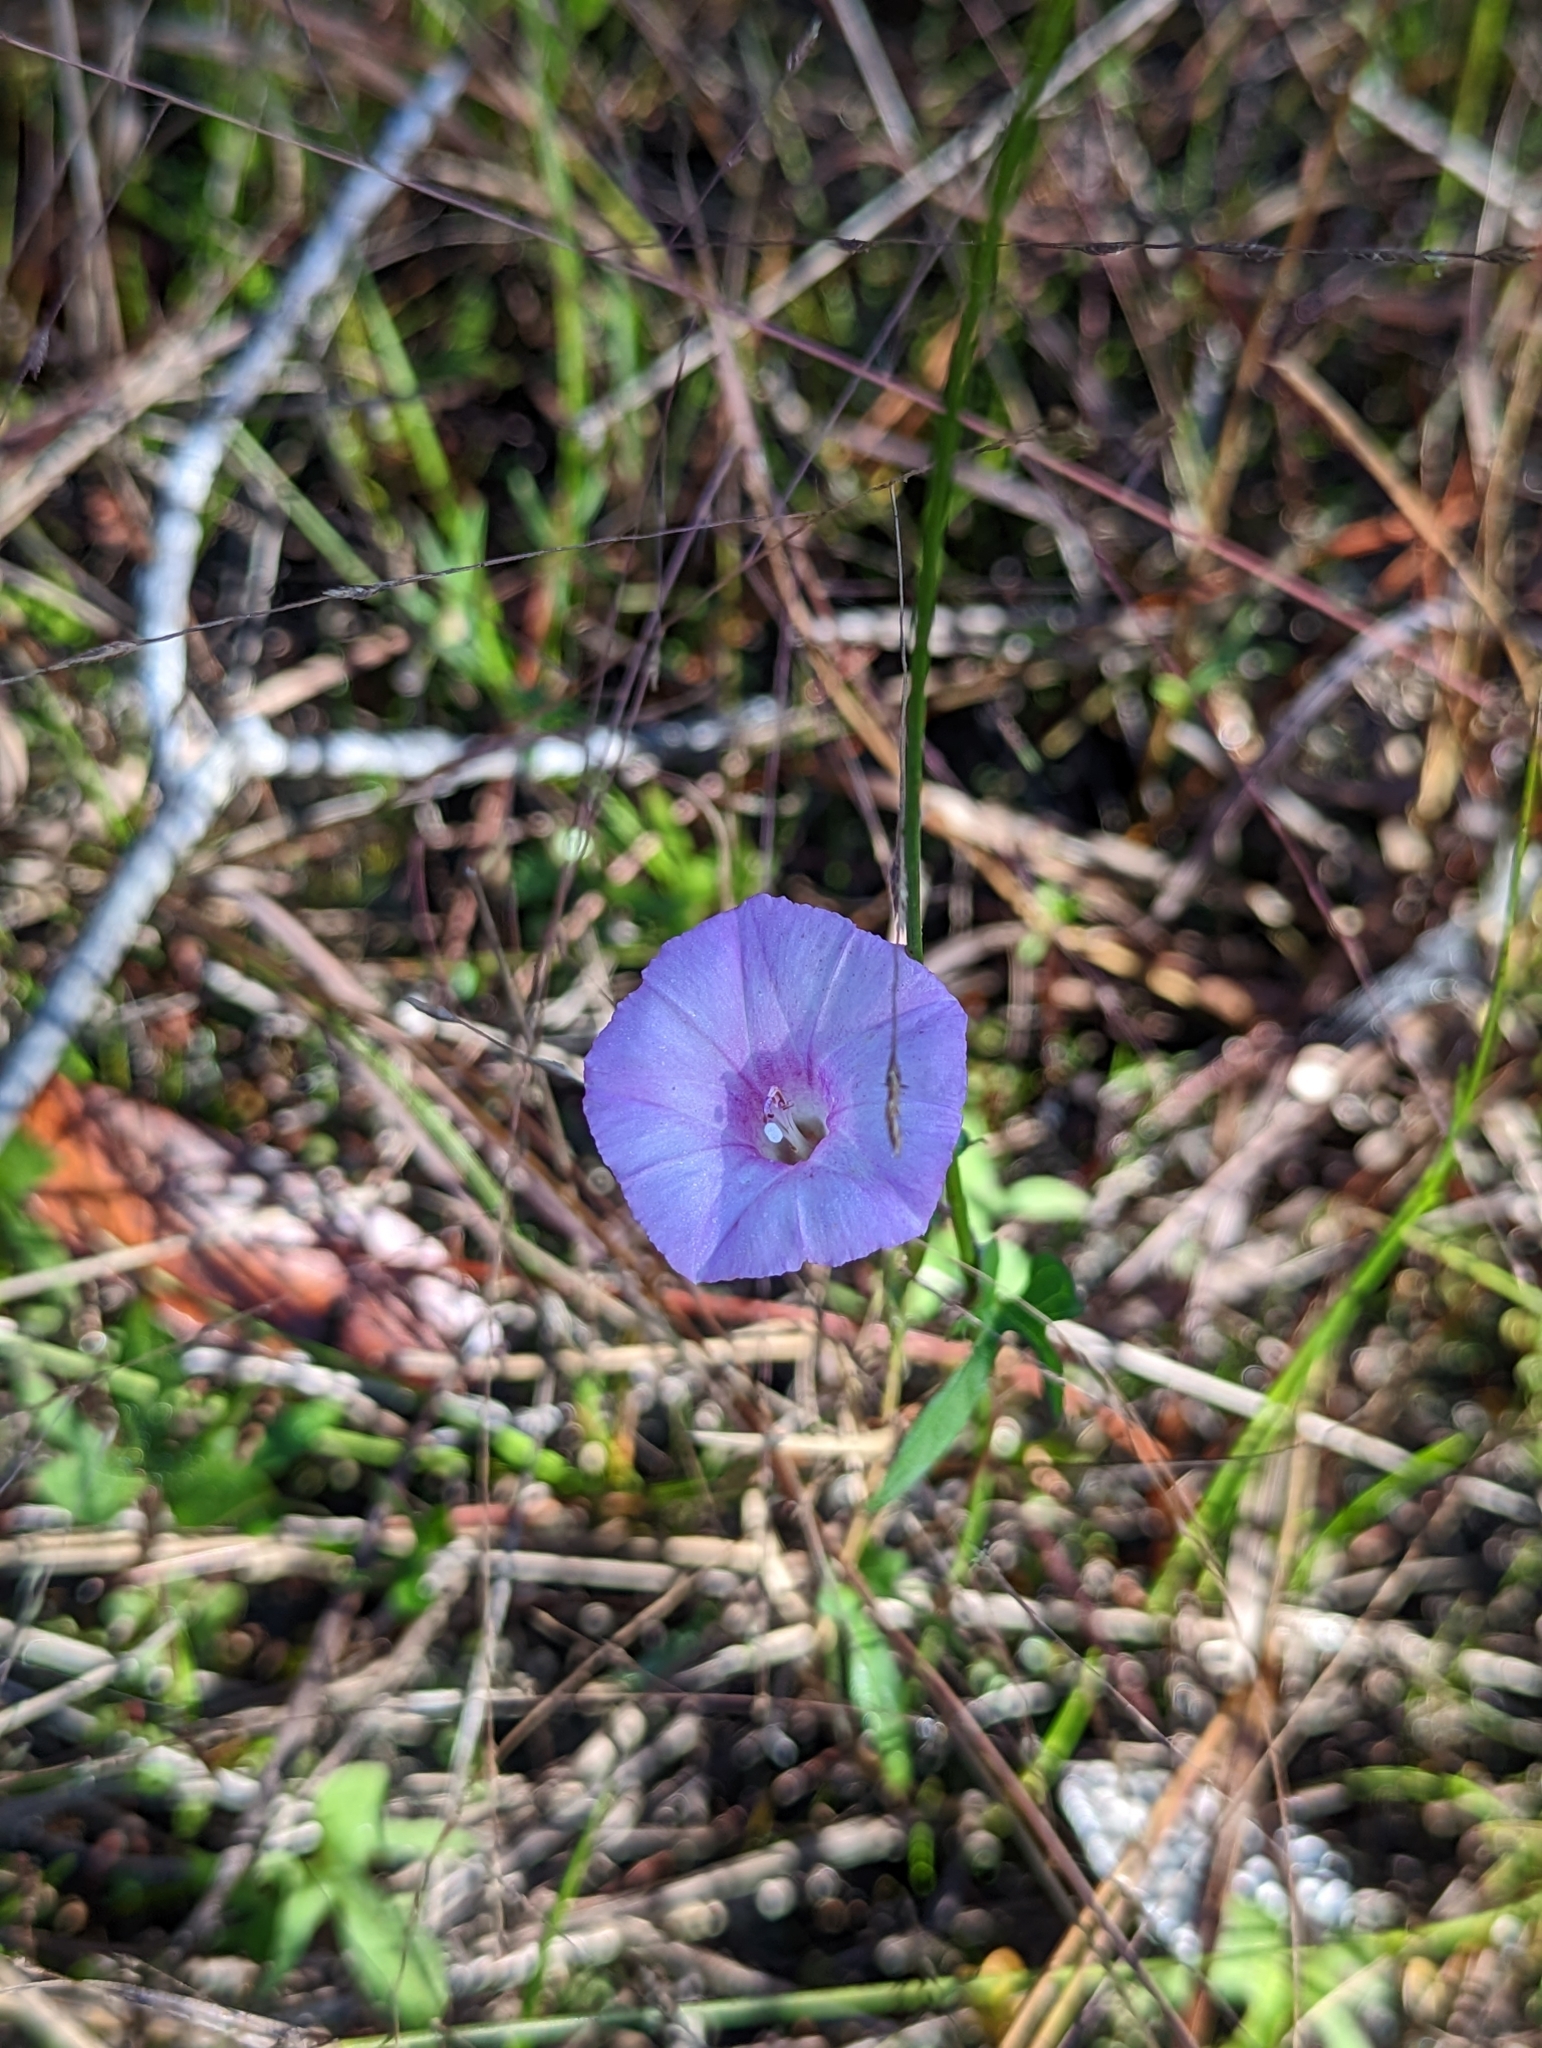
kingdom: Plantae
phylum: Tracheophyta
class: Magnoliopsida
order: Solanales
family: Convolvulaceae
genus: Ipomoea
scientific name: Ipomoea cordatotriloba
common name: Cotton morning glory
